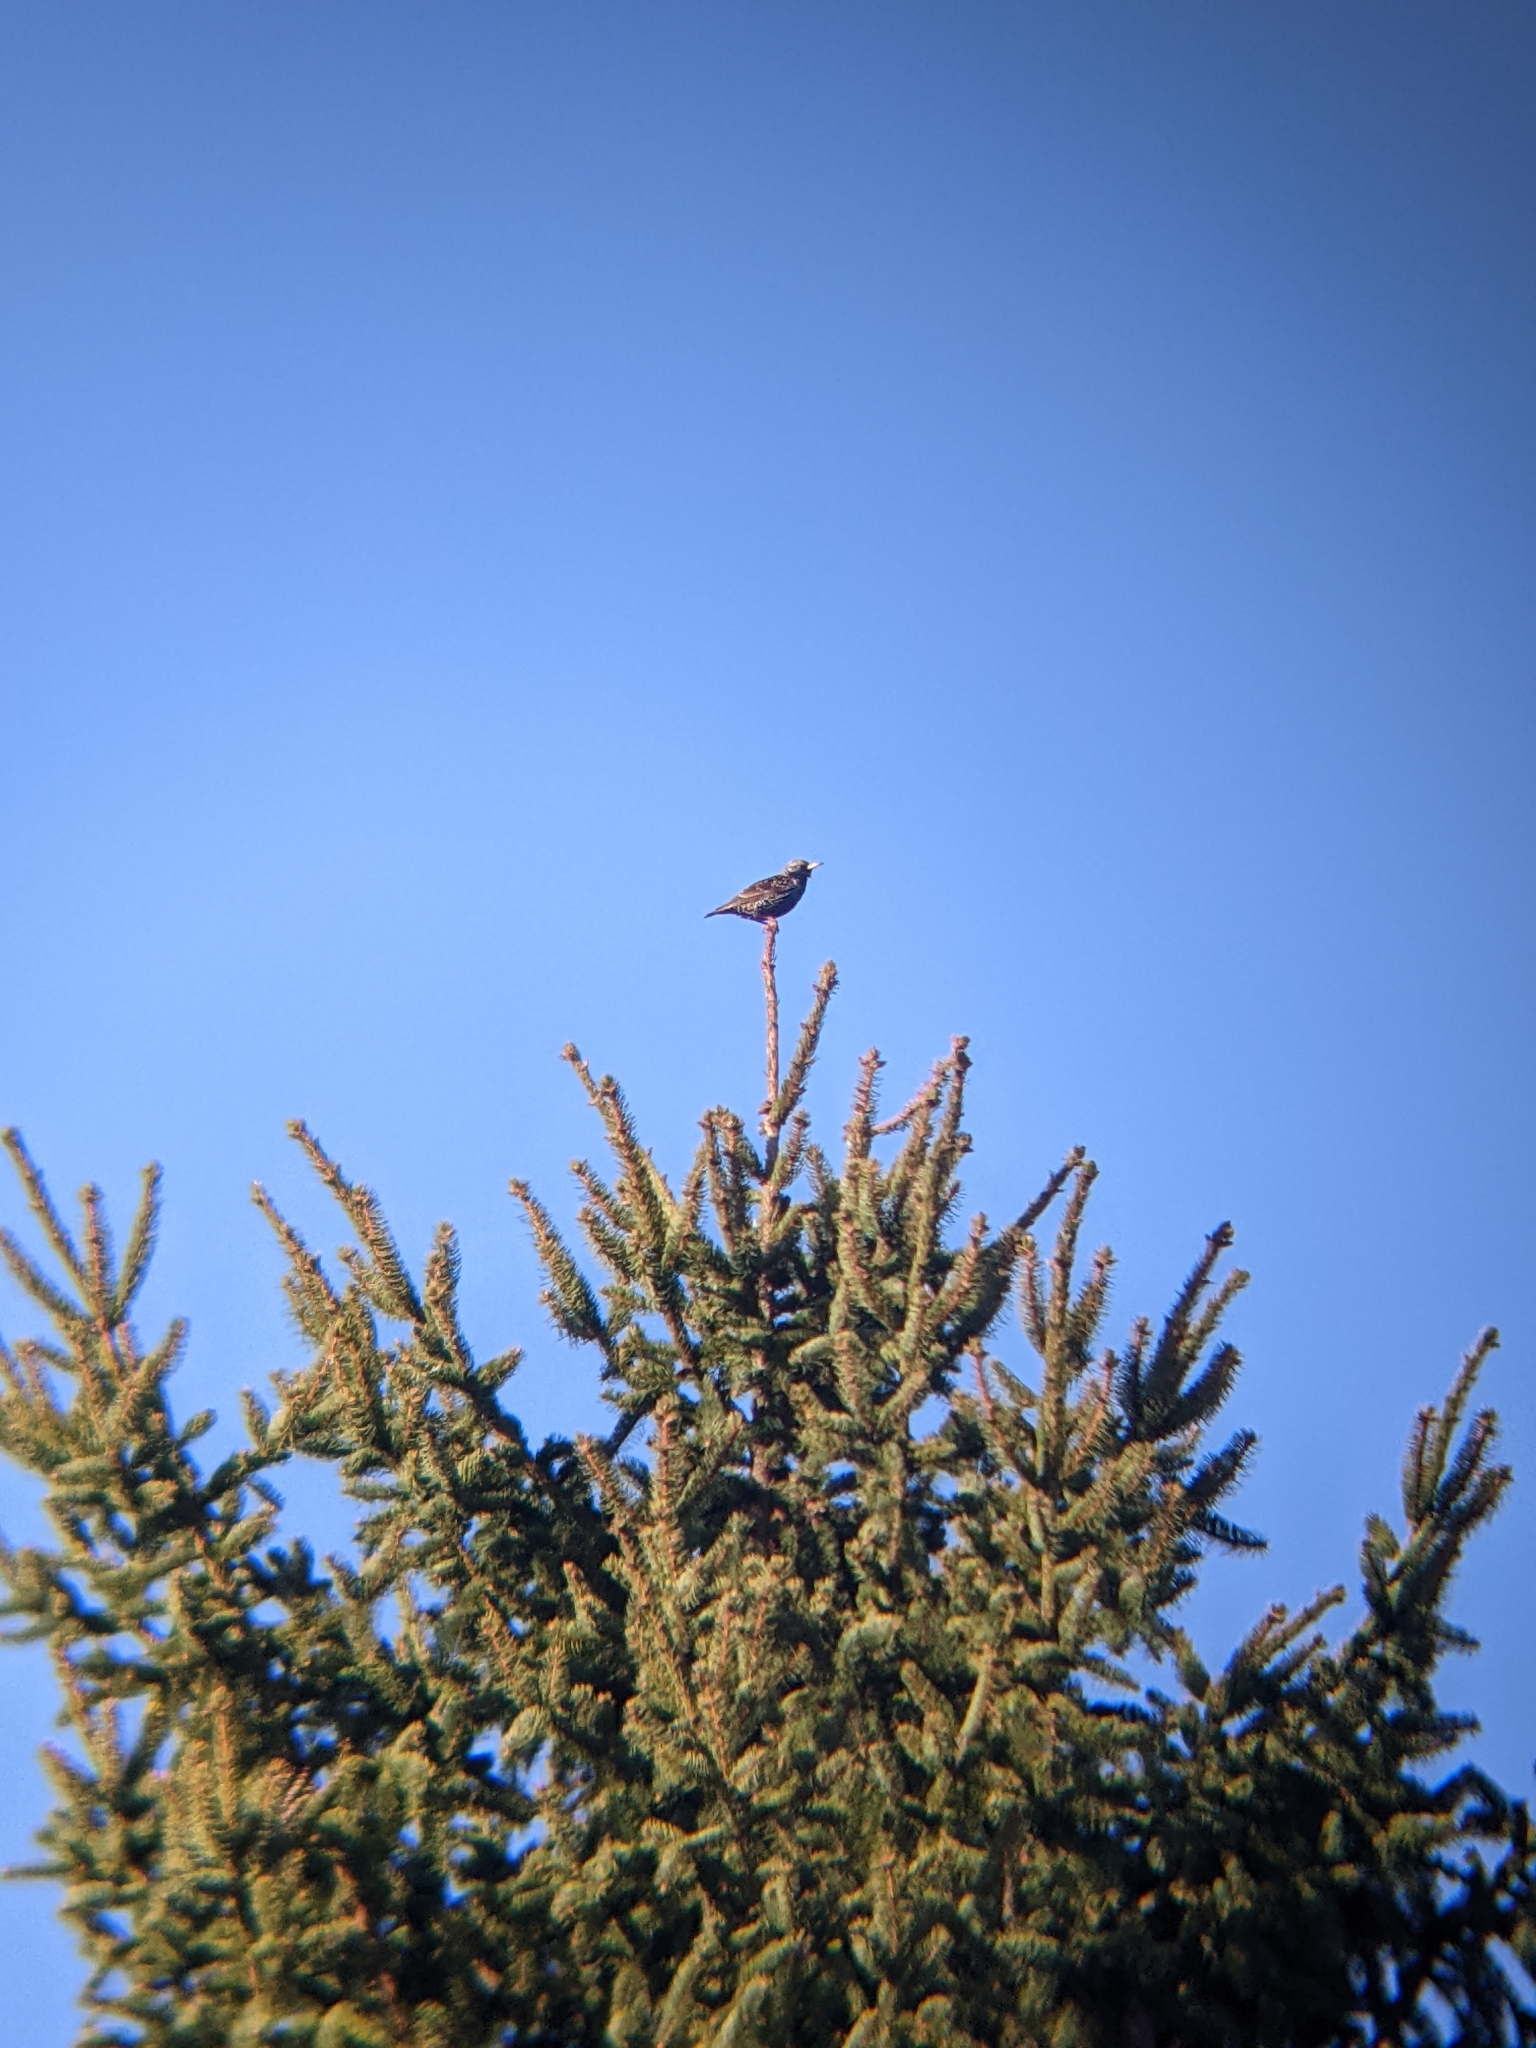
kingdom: Animalia
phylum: Chordata
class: Aves
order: Passeriformes
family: Sturnidae
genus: Sturnus
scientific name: Sturnus vulgaris
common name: Common starling
